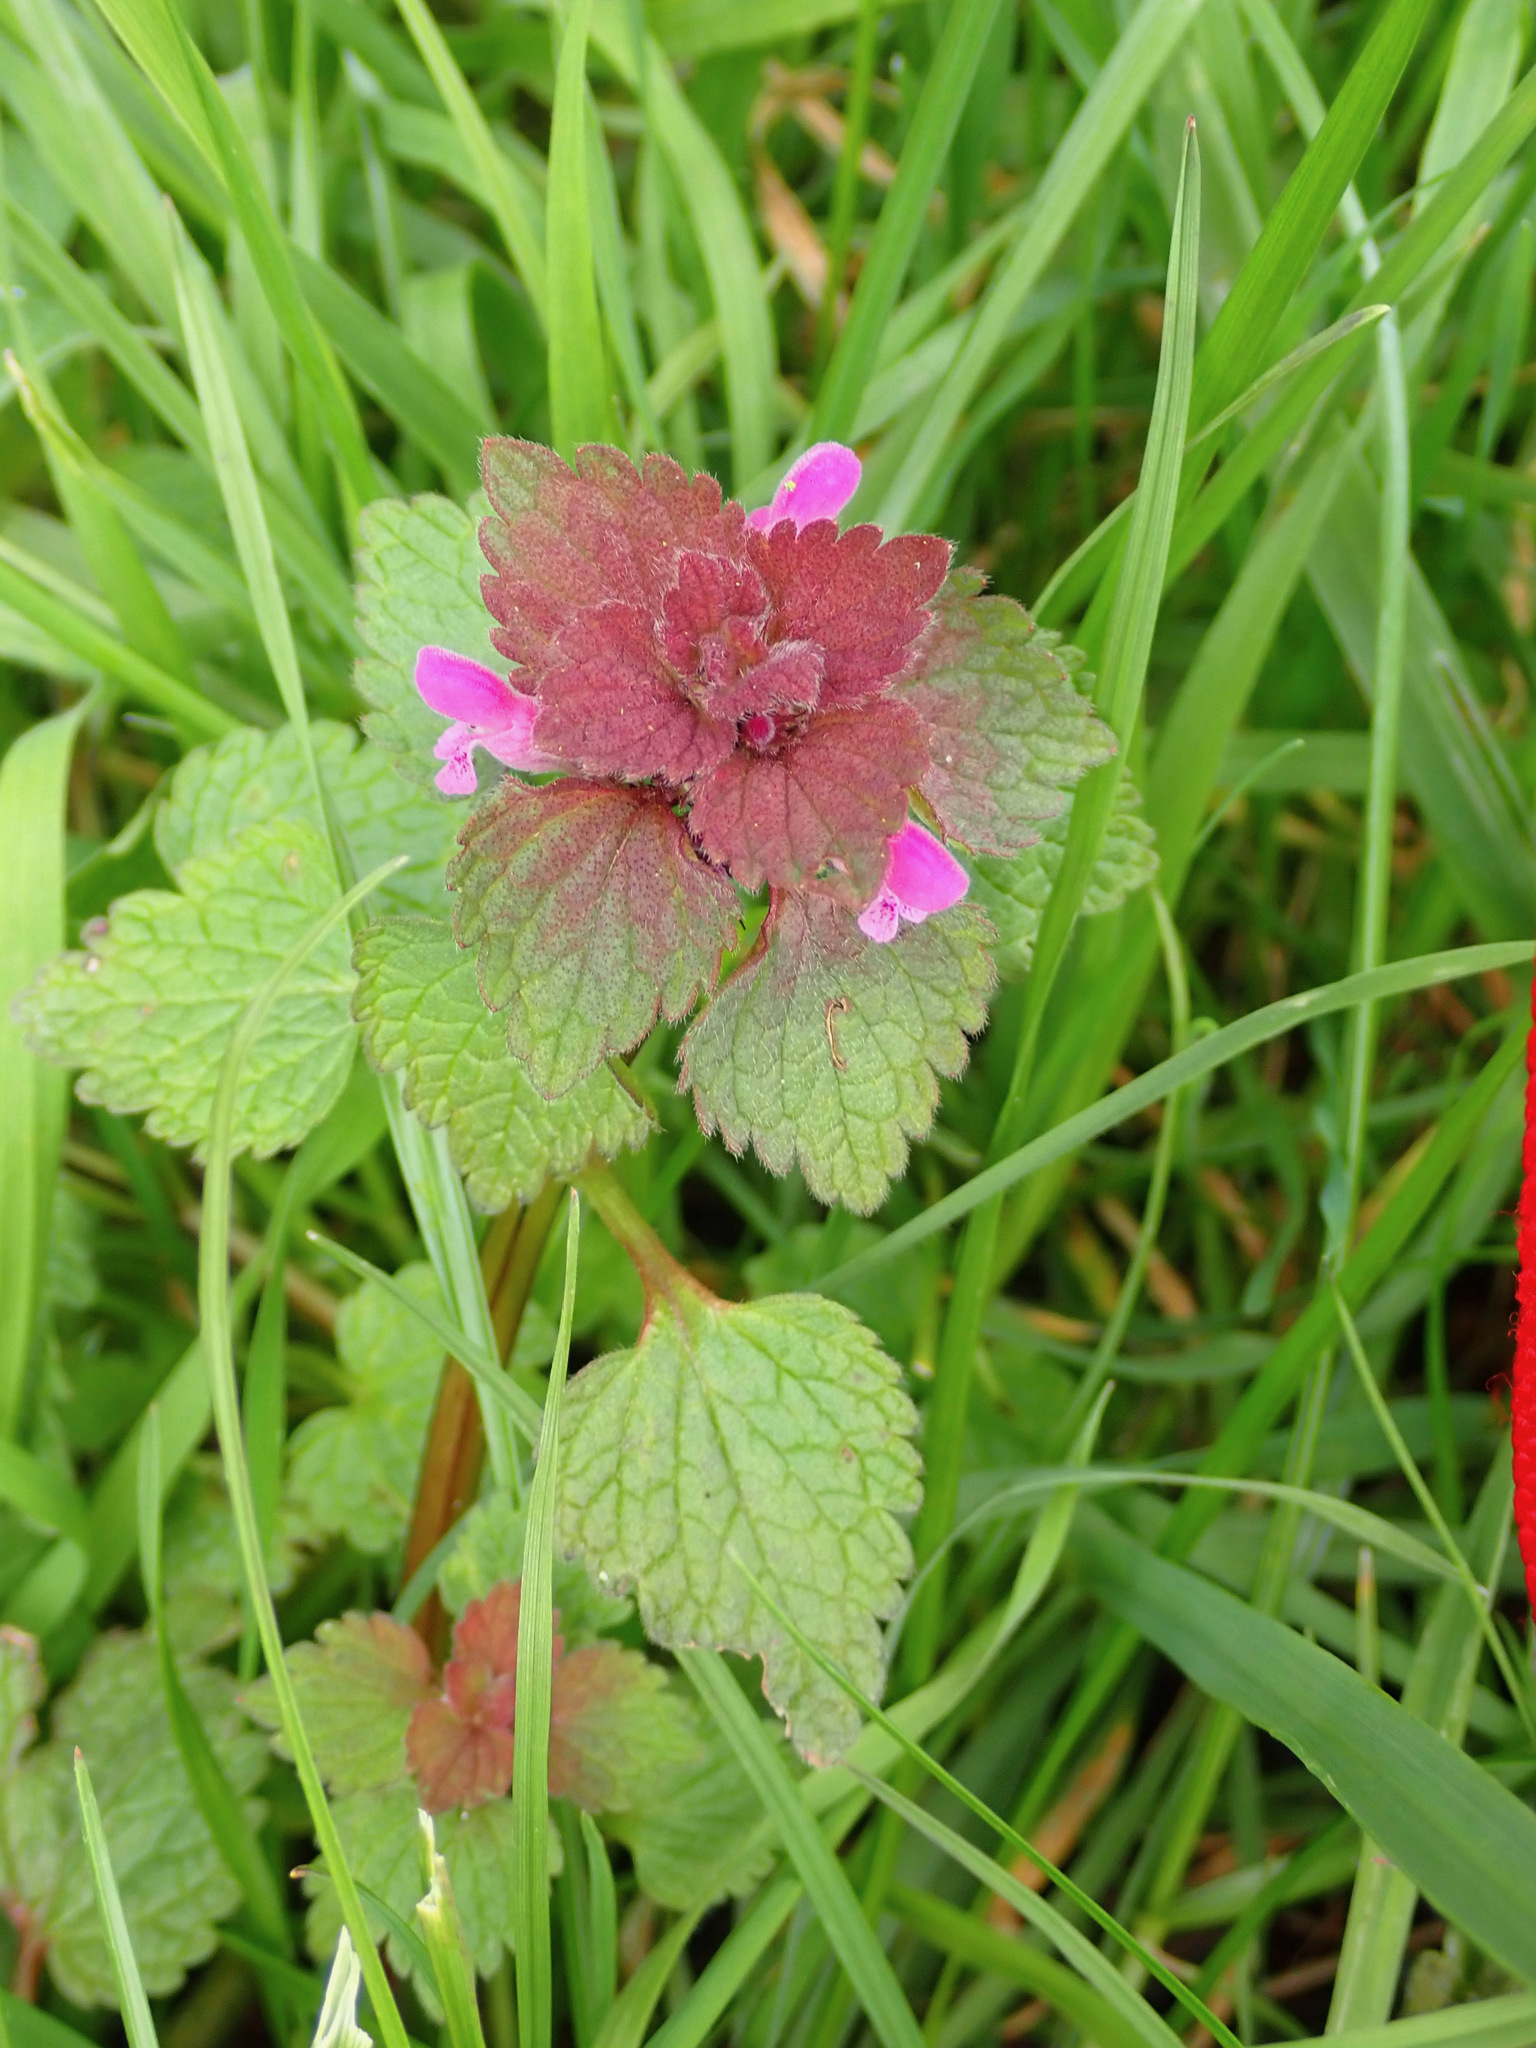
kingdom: Plantae
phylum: Tracheophyta
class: Magnoliopsida
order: Lamiales
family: Lamiaceae
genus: Lamium
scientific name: Lamium purpureum
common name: Red dead-nettle
